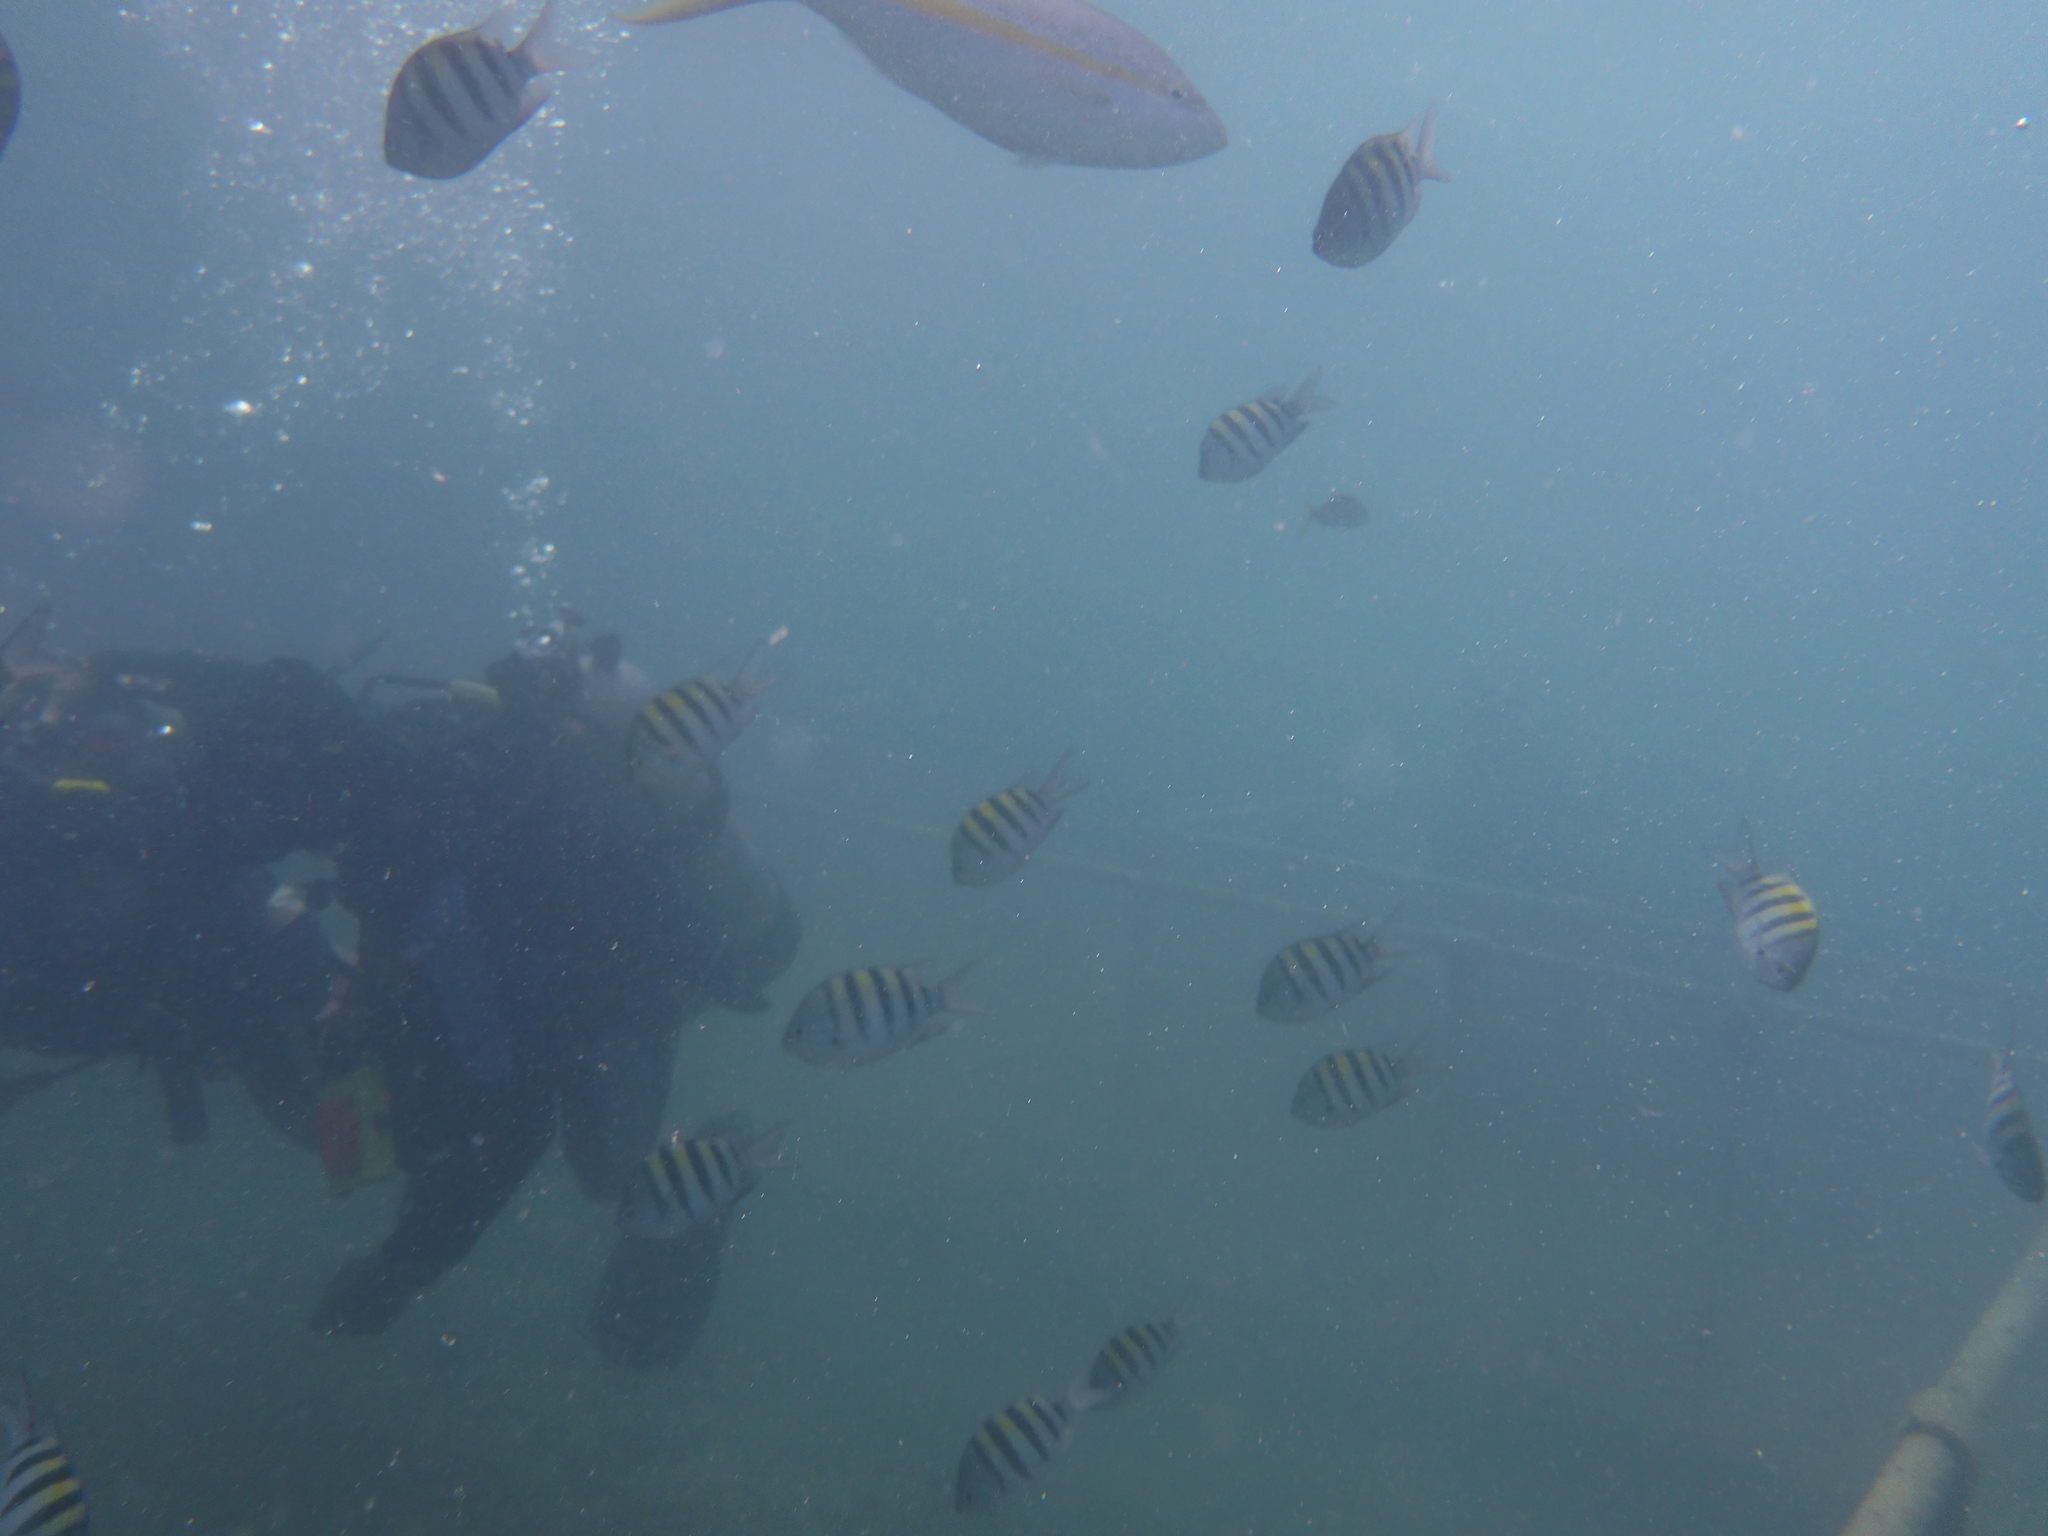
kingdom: Animalia
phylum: Chordata
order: Perciformes
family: Pomacentridae
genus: Abudefduf
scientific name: Abudefduf saxatilis
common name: Sergeant major
